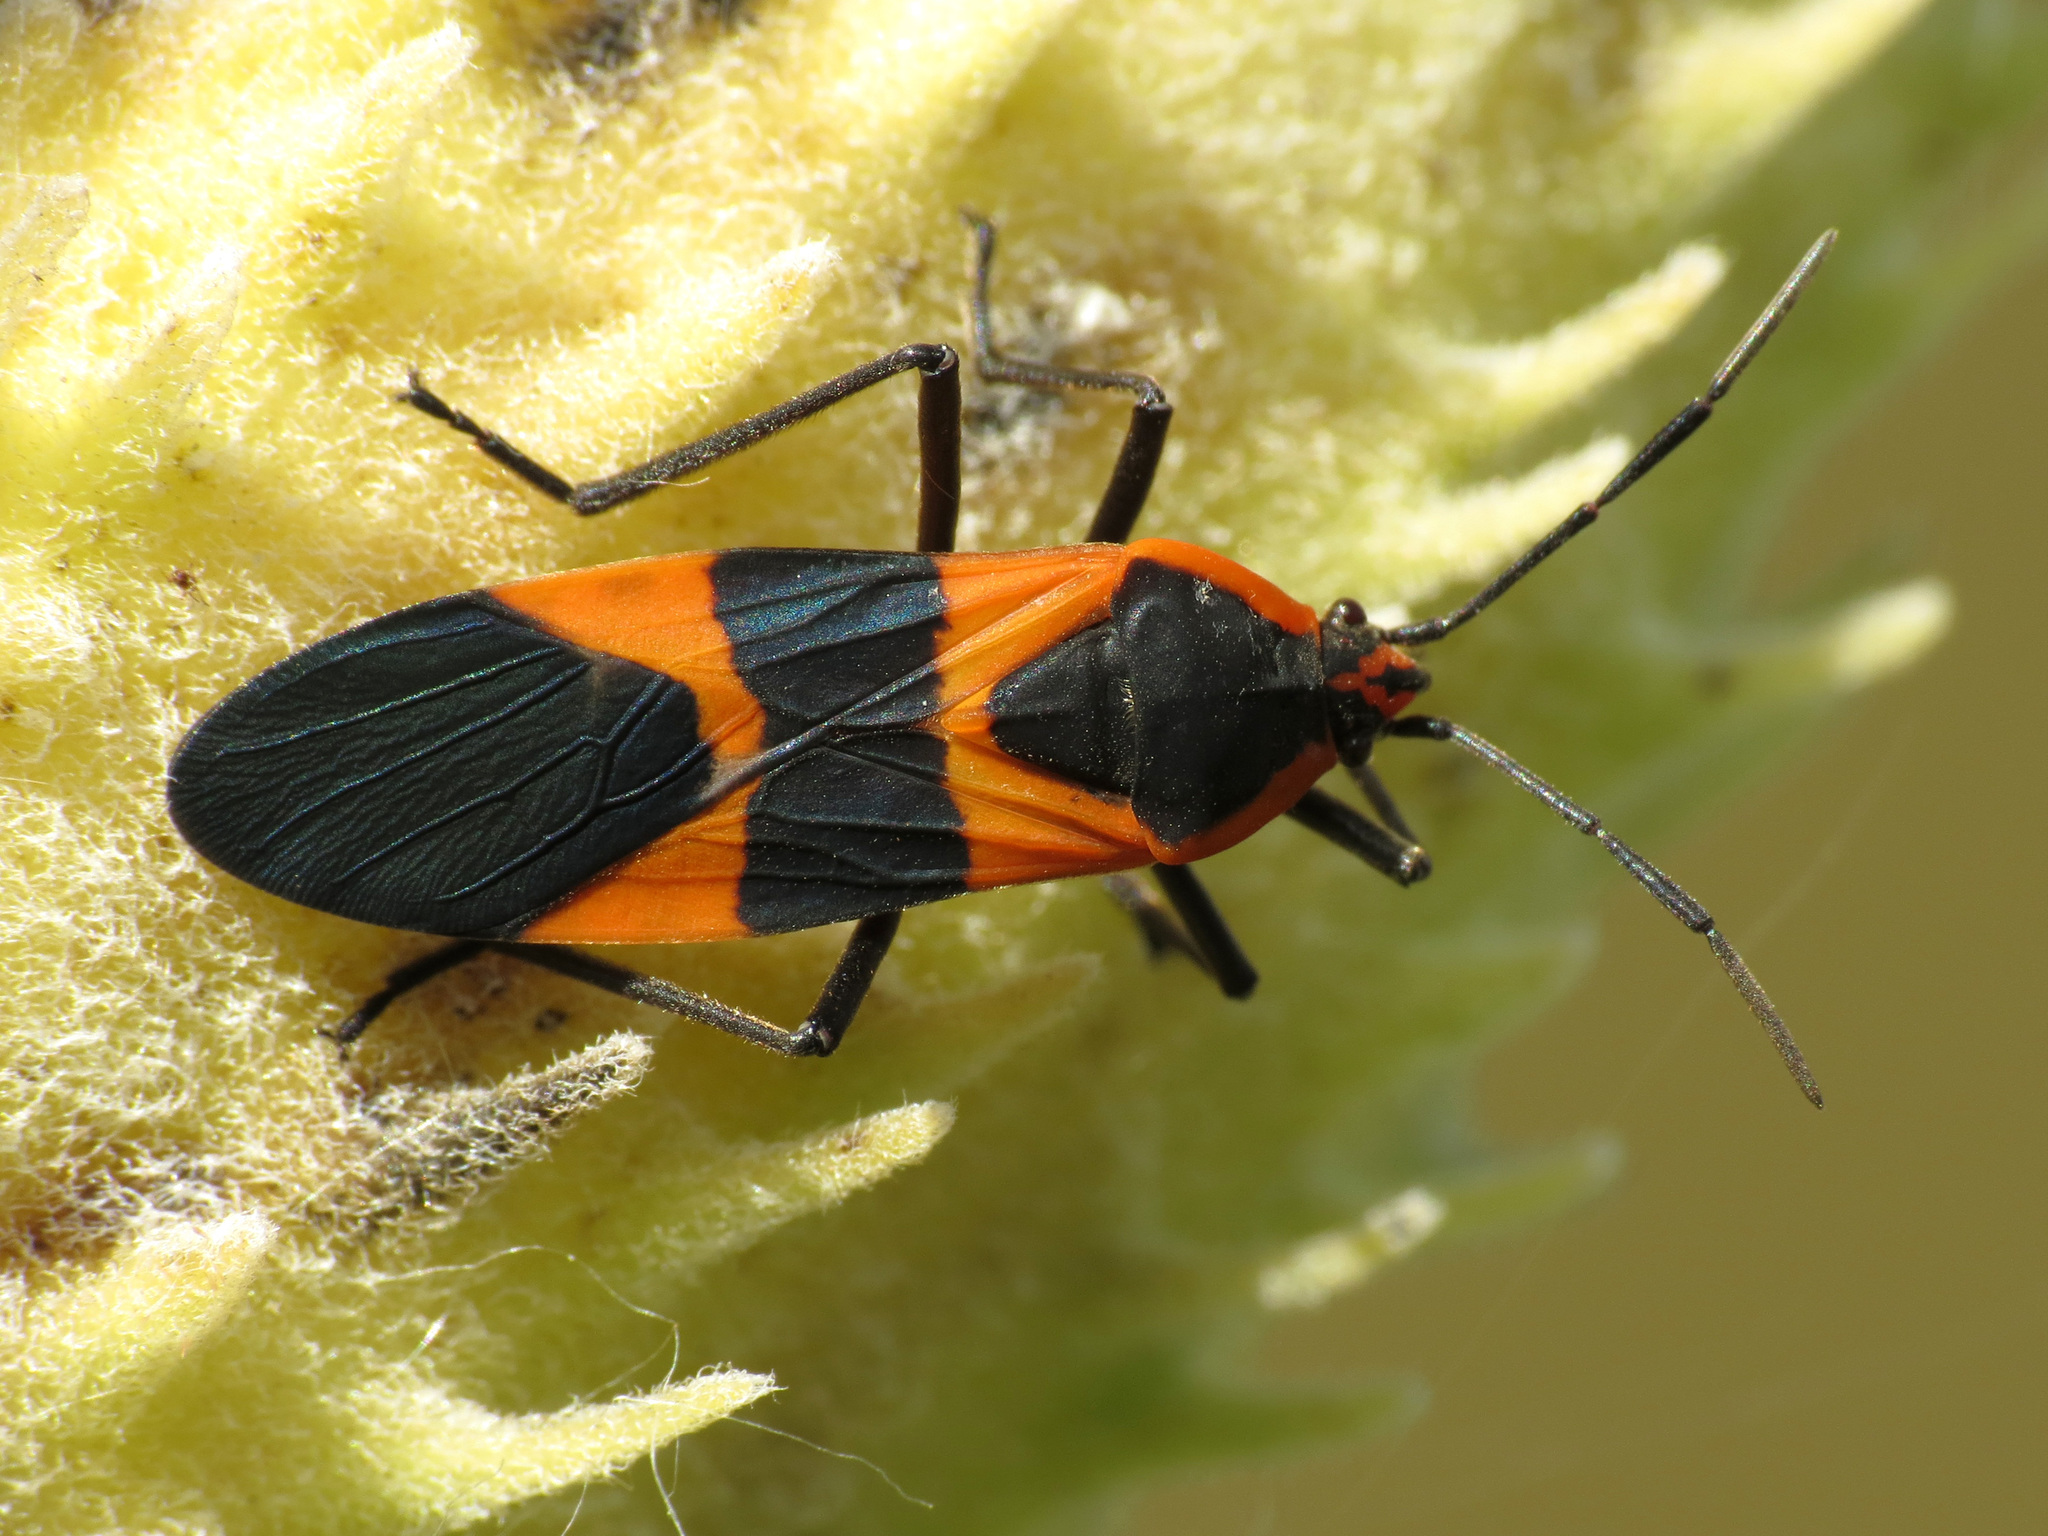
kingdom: Animalia
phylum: Arthropoda
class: Insecta
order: Hemiptera
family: Lygaeidae
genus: Oncopeltus
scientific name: Oncopeltus fasciatus
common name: Large milkweed bug
